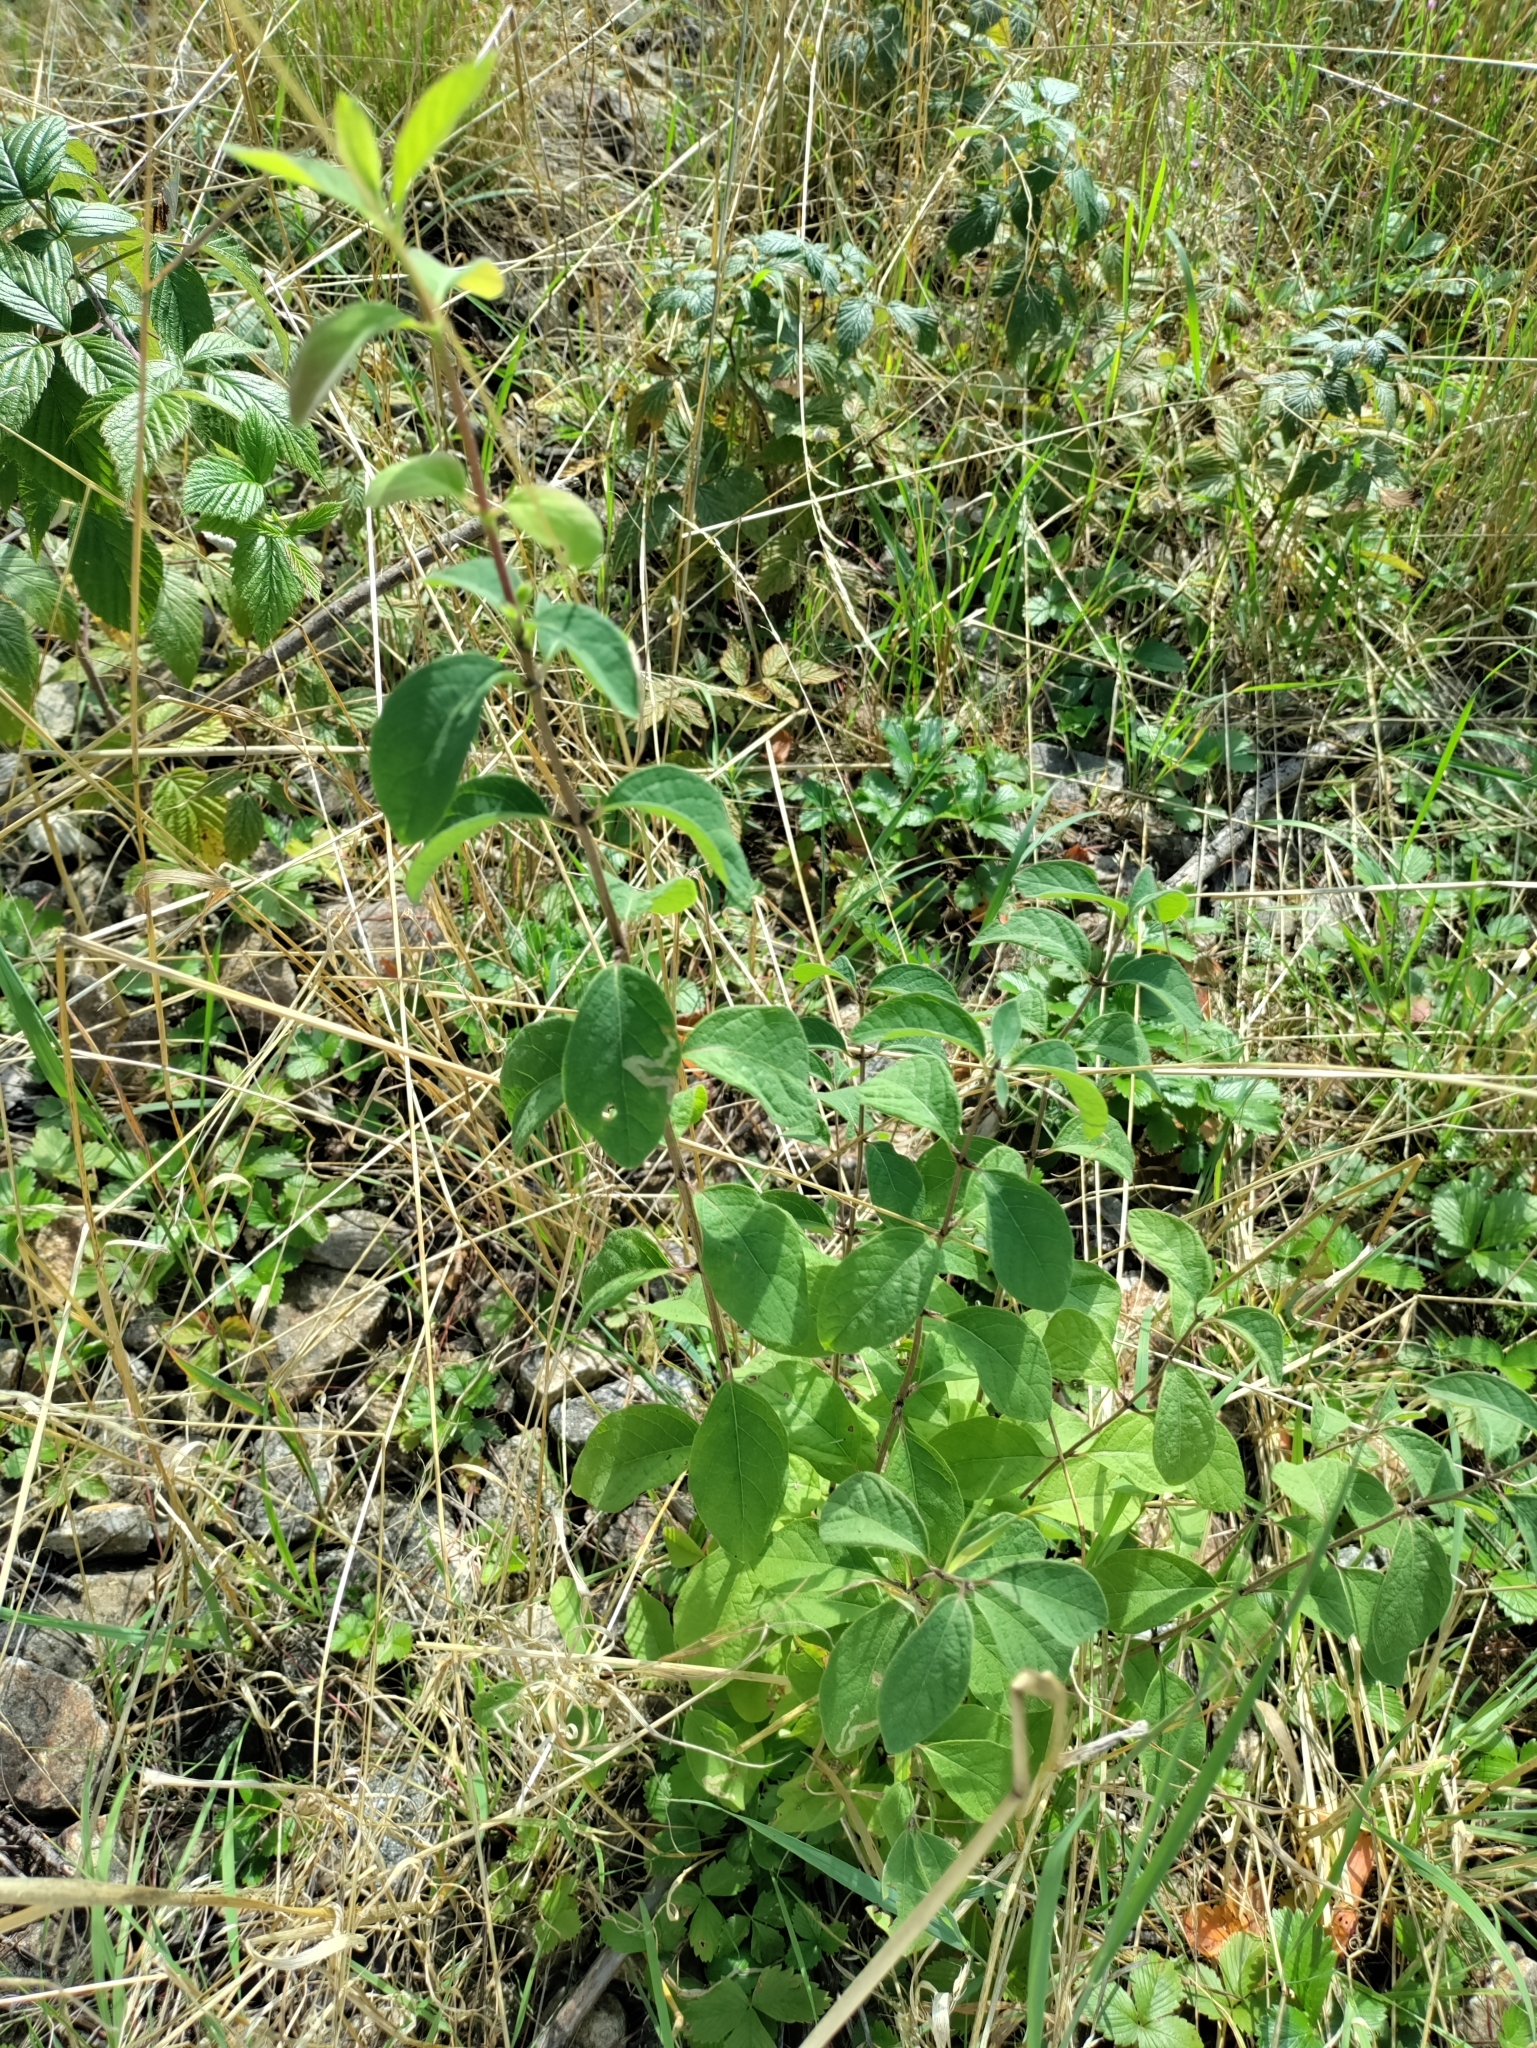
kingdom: Plantae
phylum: Tracheophyta
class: Magnoliopsida
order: Dipsacales
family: Caprifoliaceae
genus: Lonicera
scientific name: Lonicera xylosteum
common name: Fly honeysuckle
